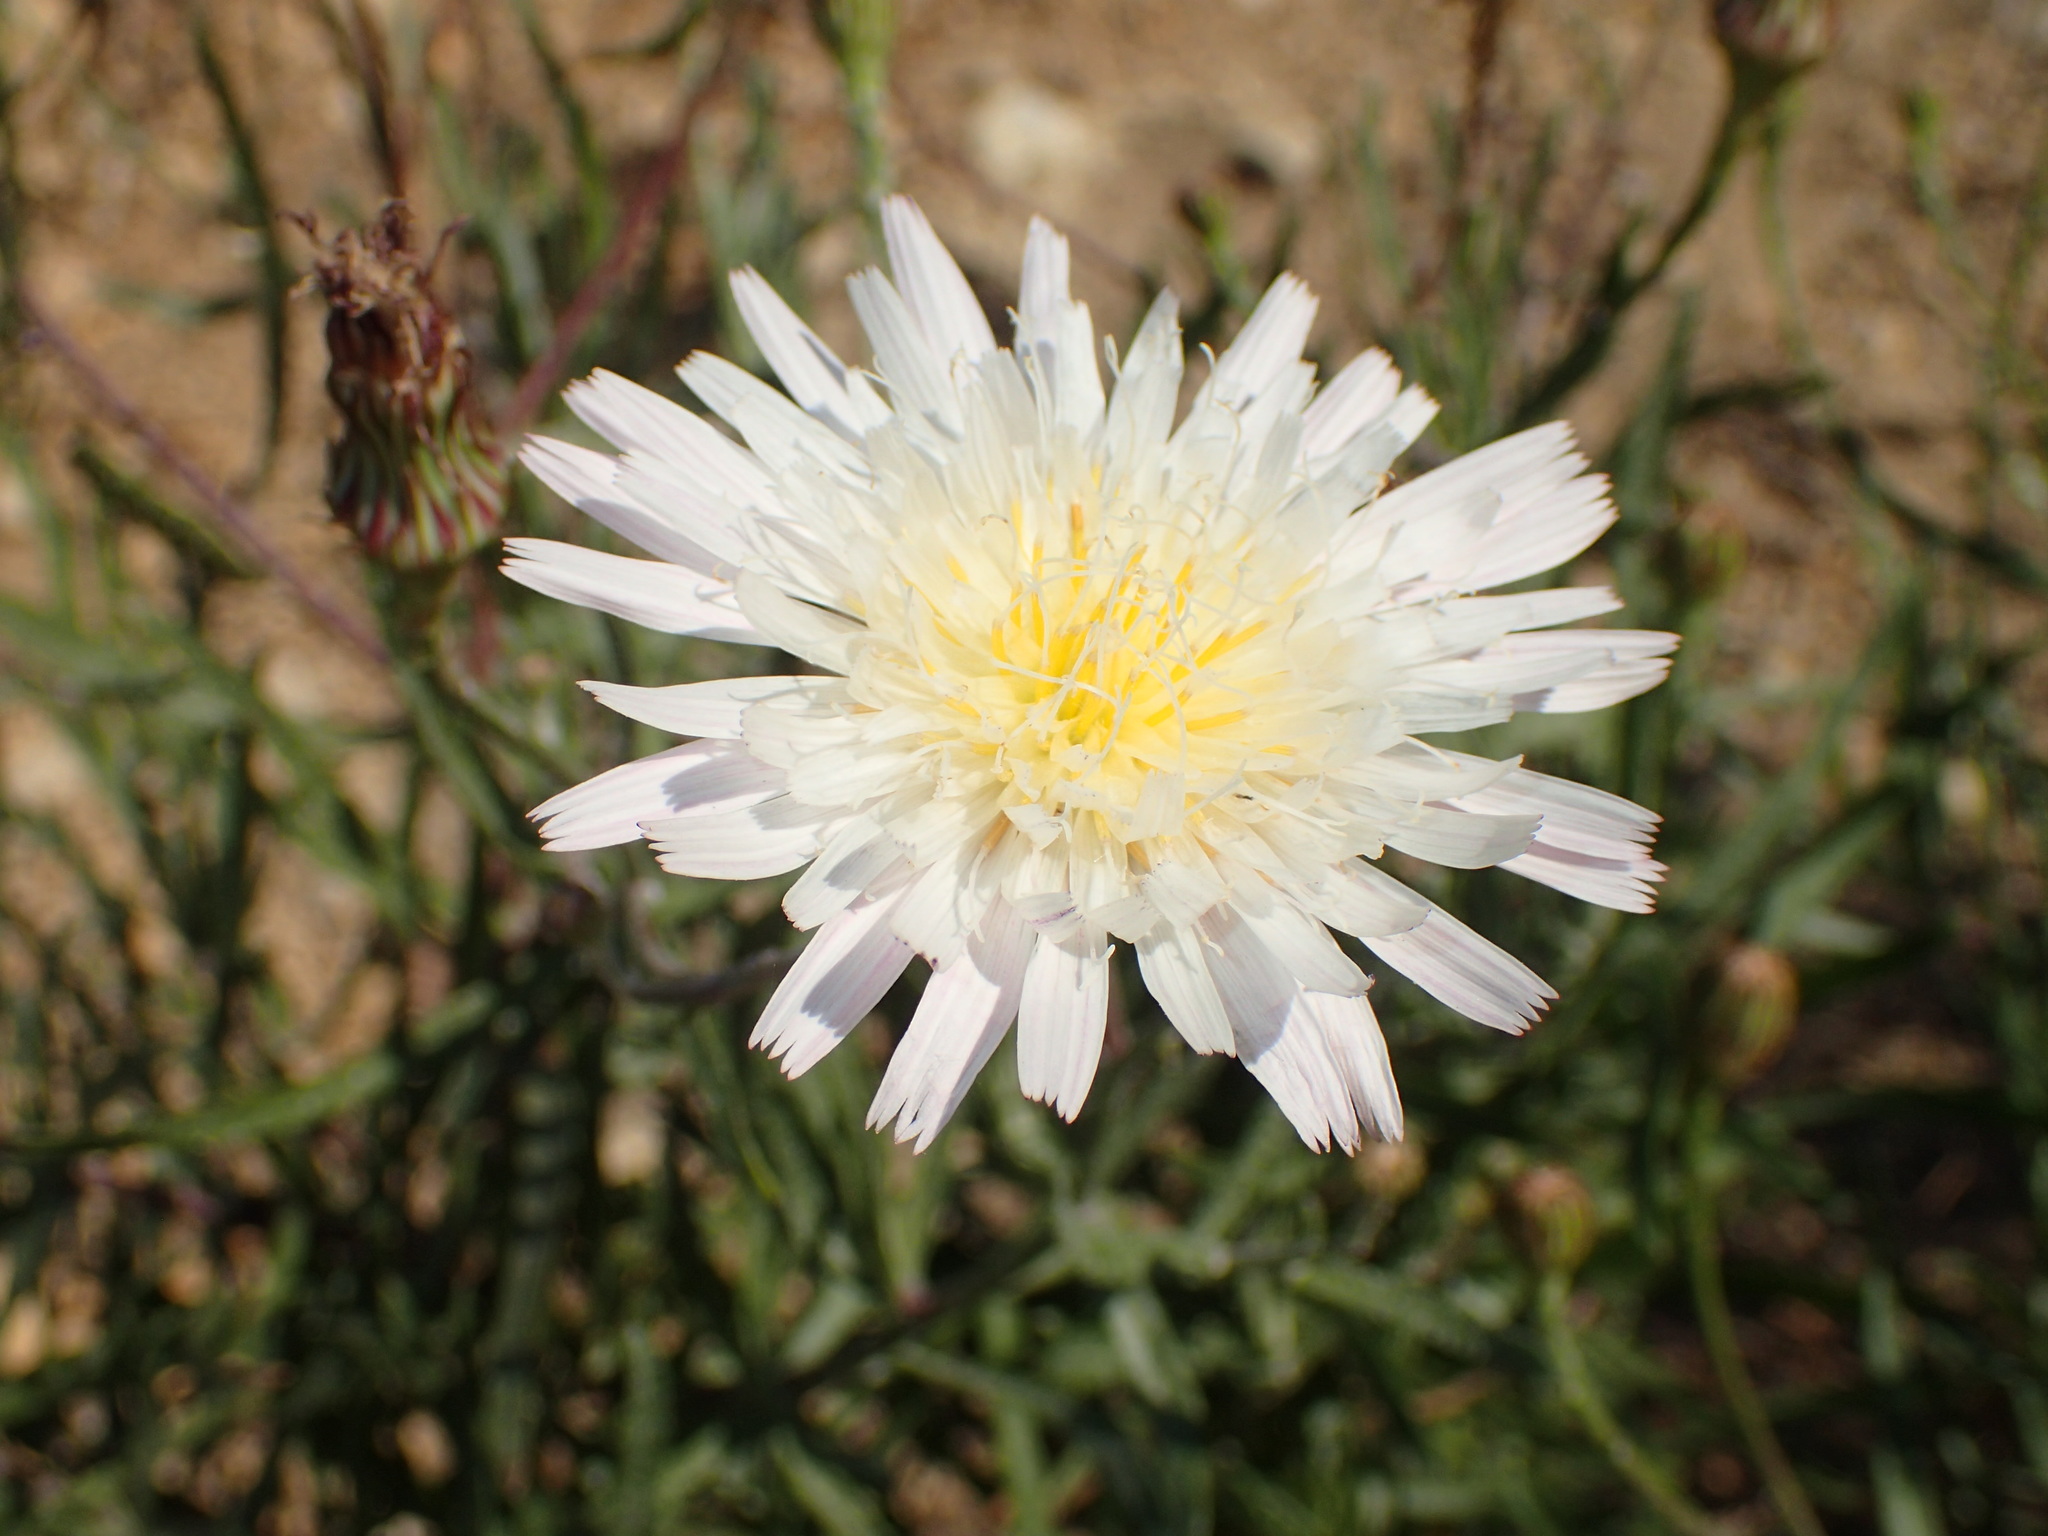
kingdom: Plantae
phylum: Tracheophyta
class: Magnoliopsida
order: Asterales
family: Asteraceae
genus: Malacothrix
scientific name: Malacothrix saxatilis
